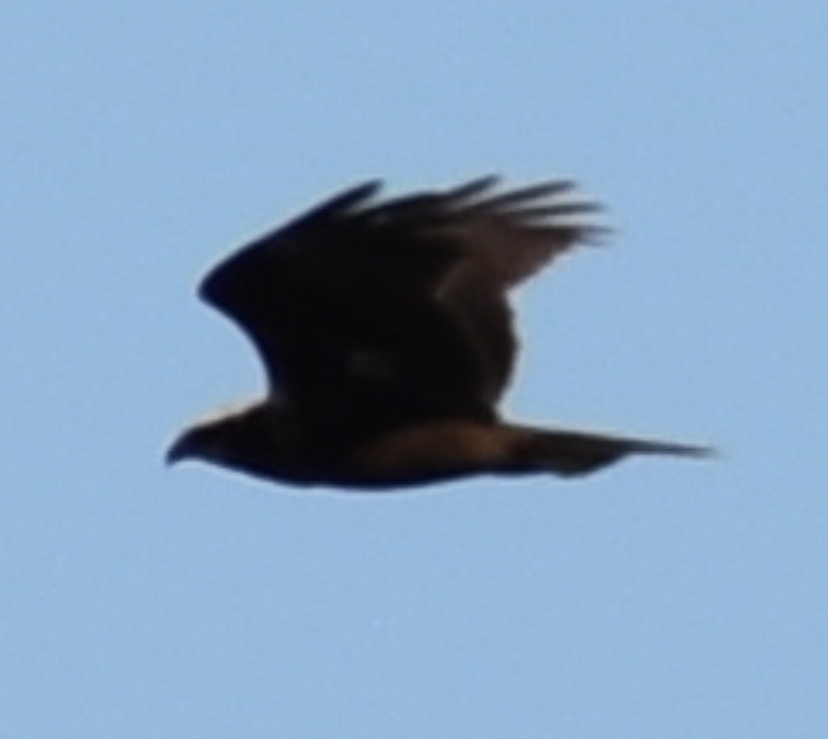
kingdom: Animalia
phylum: Chordata
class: Aves
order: Accipitriformes
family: Accipitridae
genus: Circus
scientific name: Circus aeruginosus
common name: Western marsh harrier
